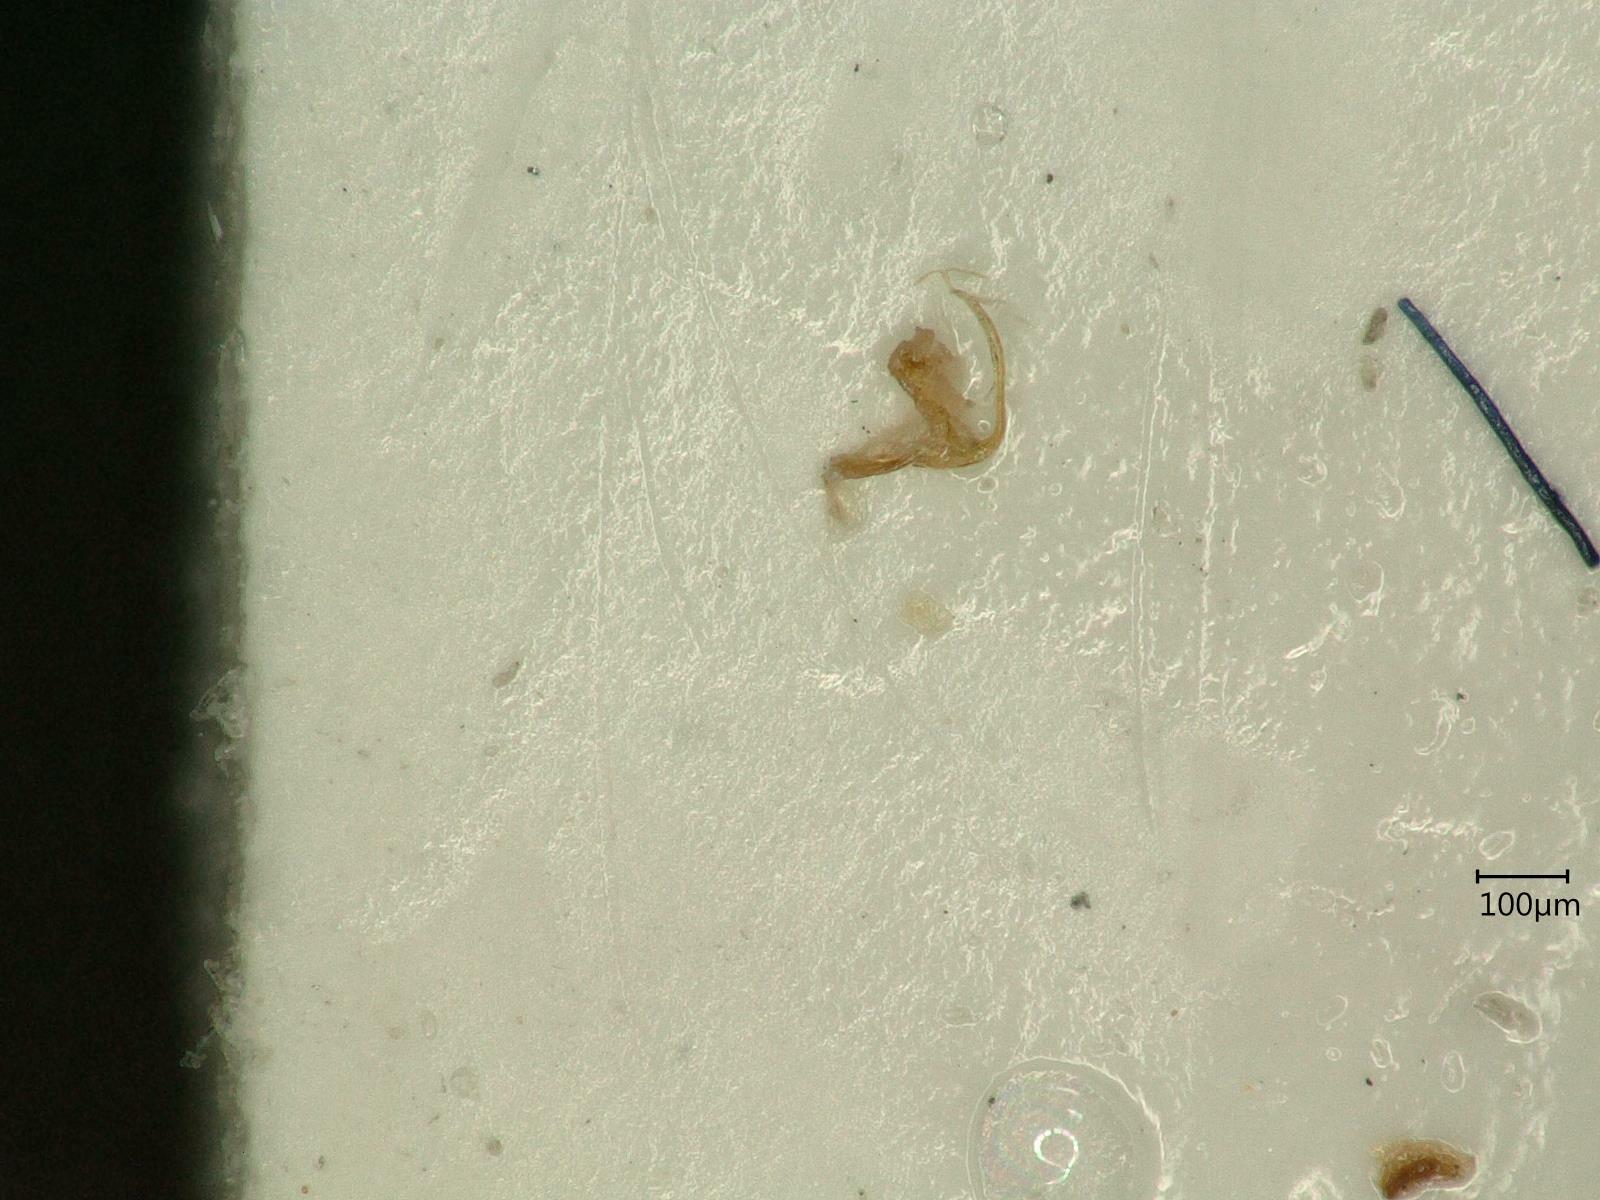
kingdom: Animalia
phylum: Arthropoda
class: Insecta
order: Hemiptera
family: Cicadellidae
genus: Eupteryx
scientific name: Eupteryx calcarata
